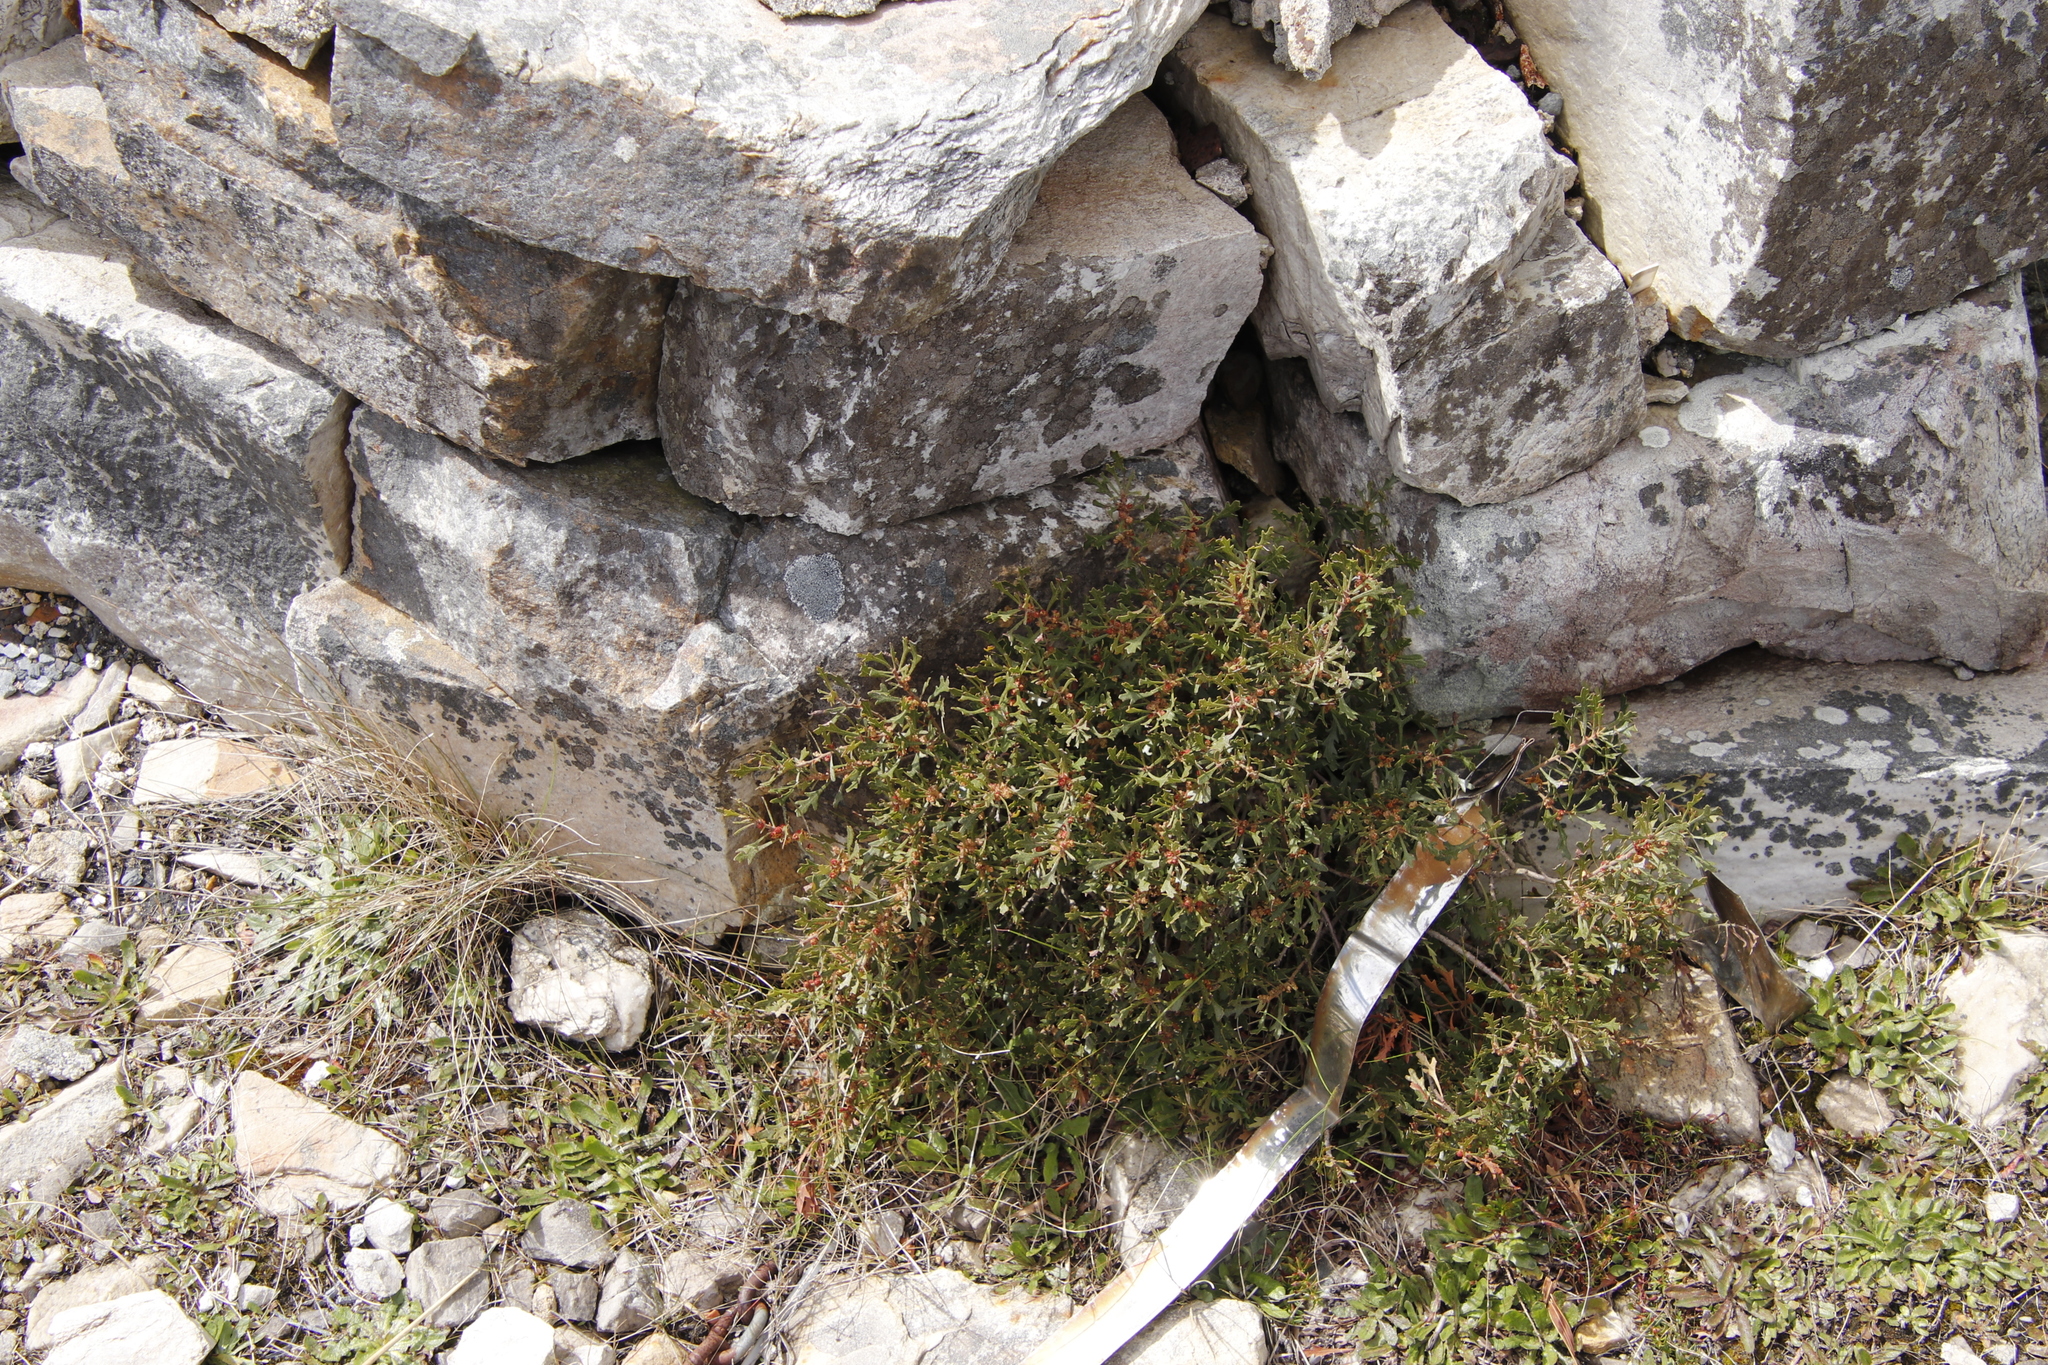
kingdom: Plantae
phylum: Tracheophyta
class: Magnoliopsida
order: Fagales
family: Myricaceae
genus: Morella
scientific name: Morella quercifolia
